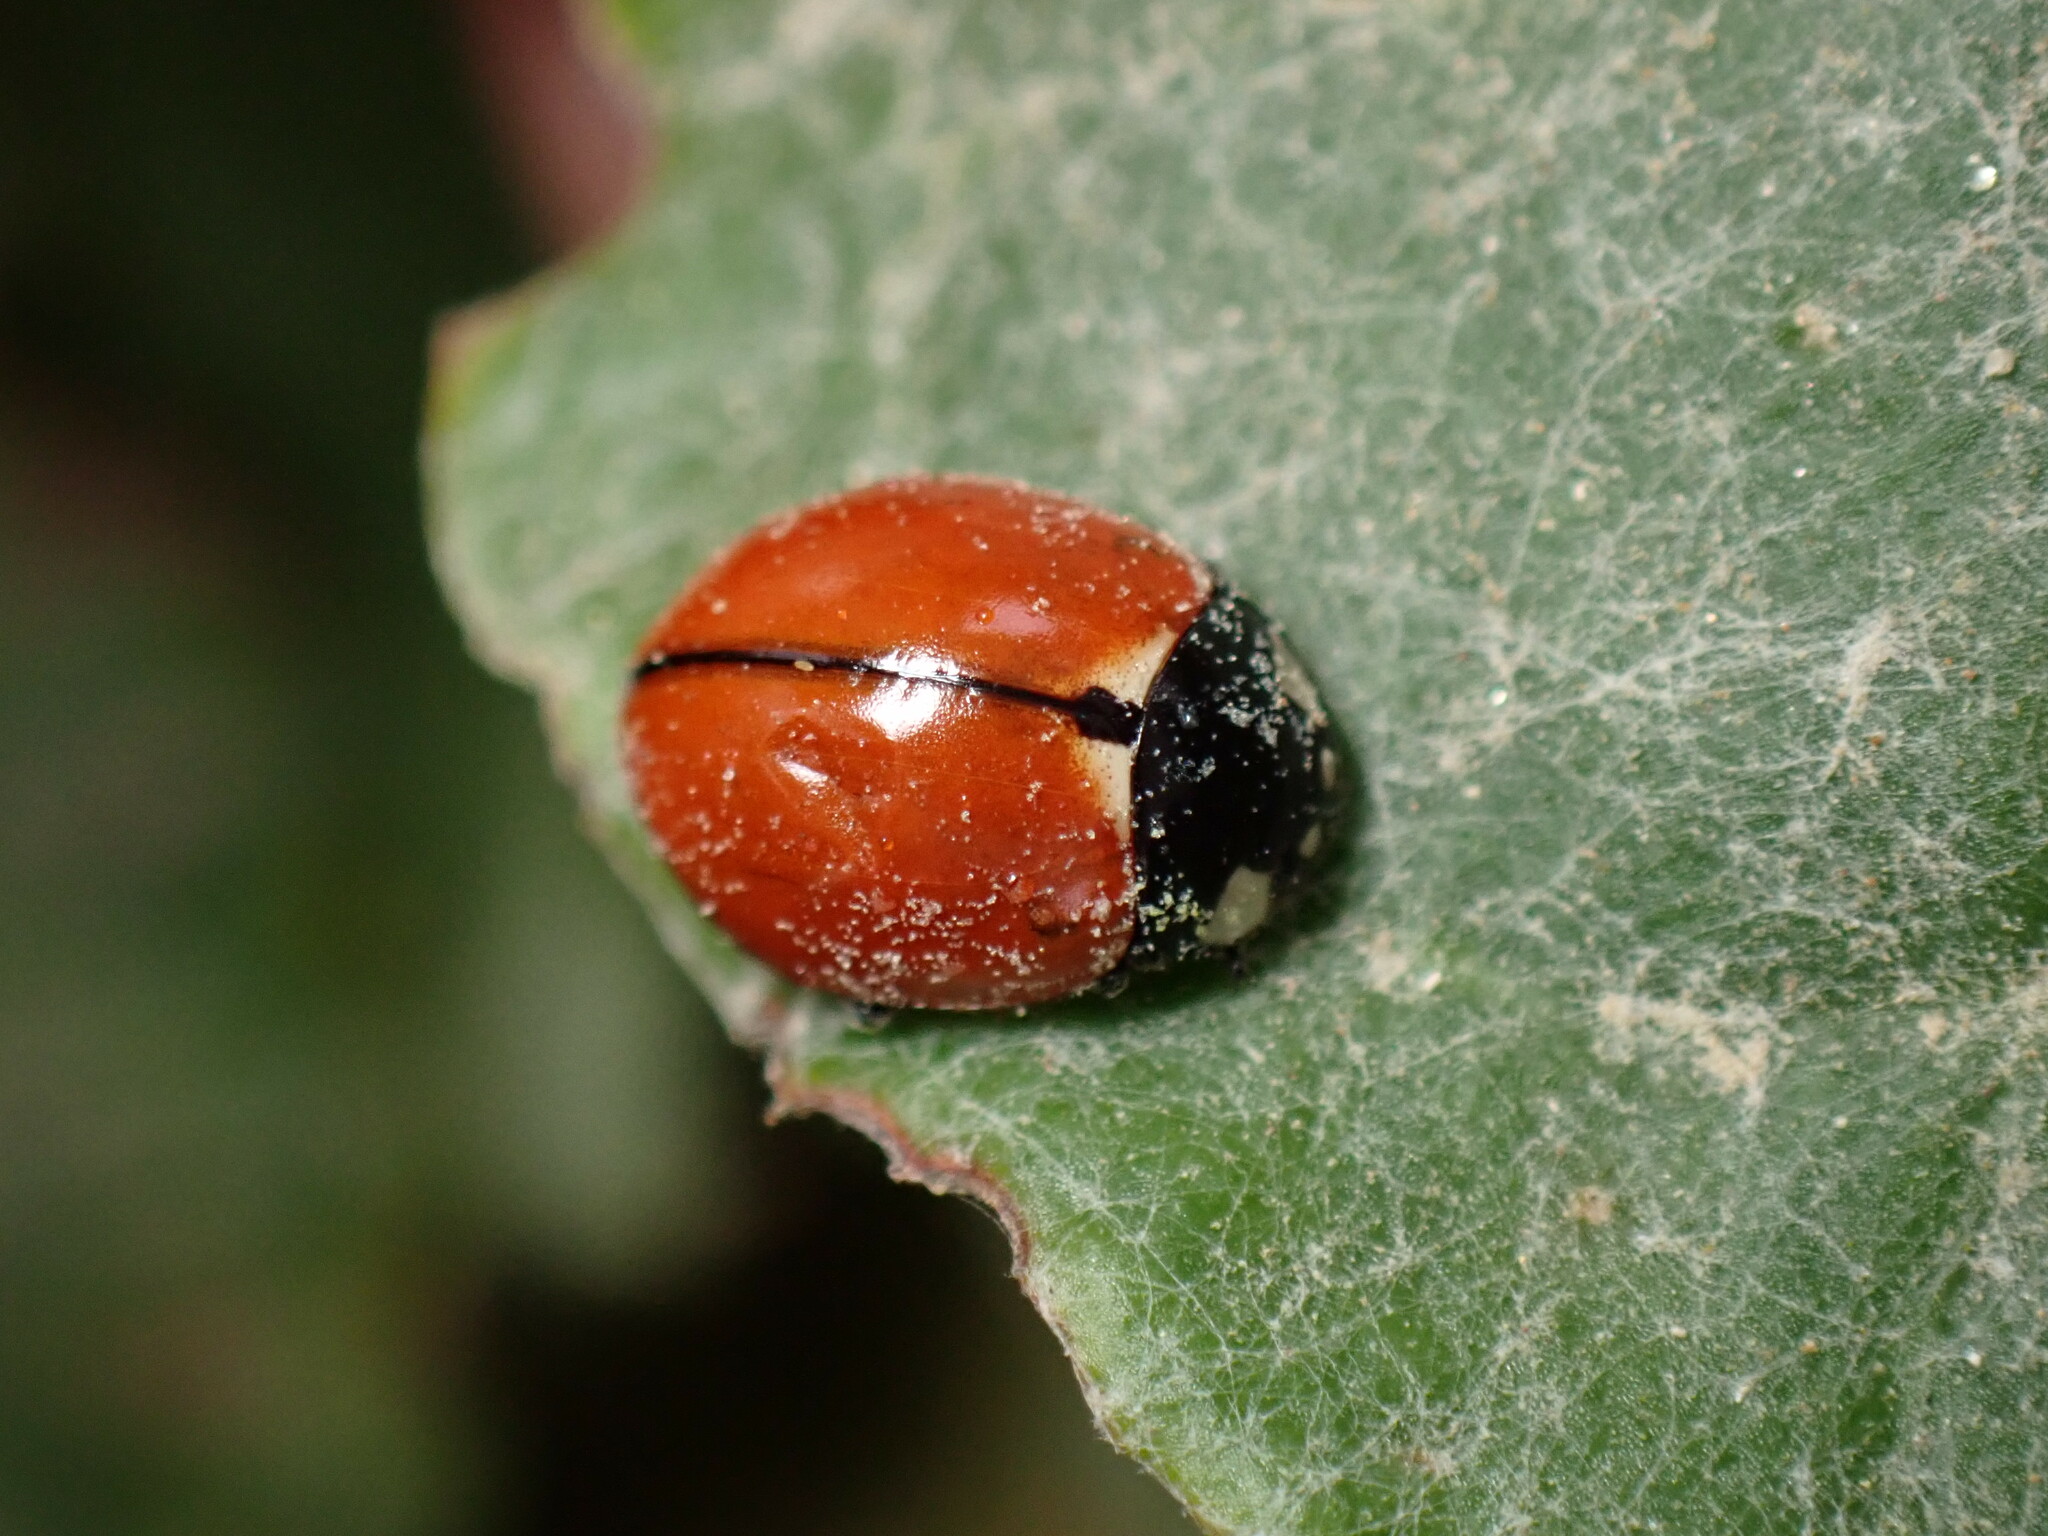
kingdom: Animalia
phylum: Arthropoda
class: Insecta
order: Coleoptera
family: Coccinellidae
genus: Coccinella
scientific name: Coccinella californica
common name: Lady beetle
